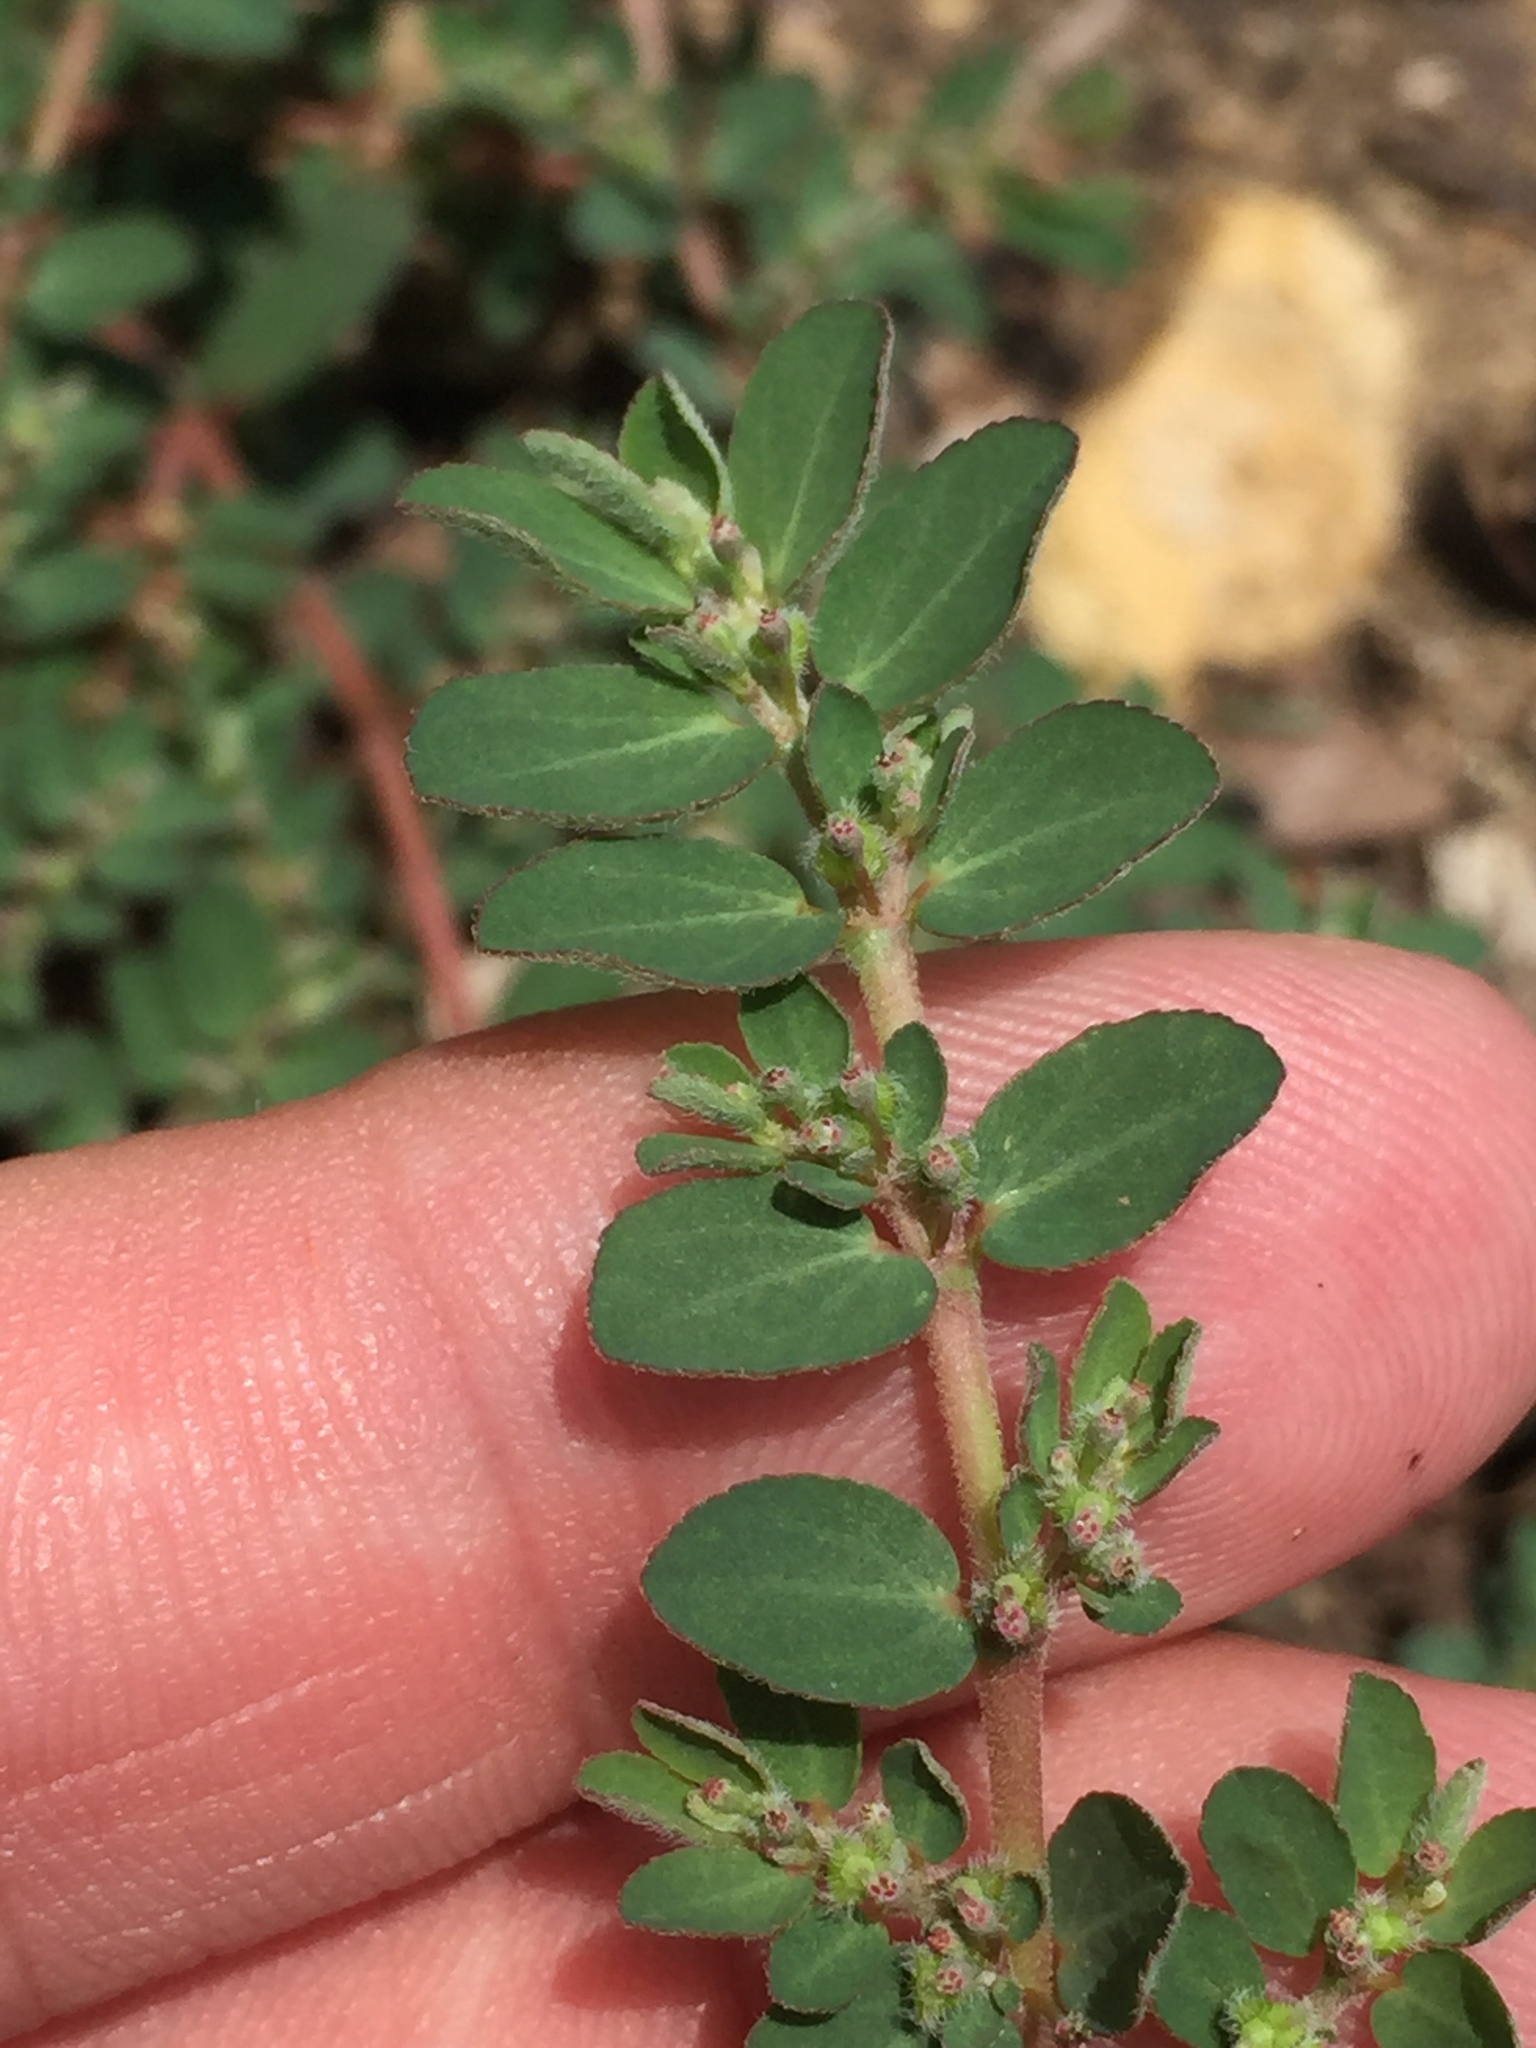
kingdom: Plantae
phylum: Tracheophyta
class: Magnoliopsida
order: Malpighiales
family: Euphorbiaceae
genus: Euphorbia
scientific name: Euphorbia prostrata
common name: Prostrate sandmat
